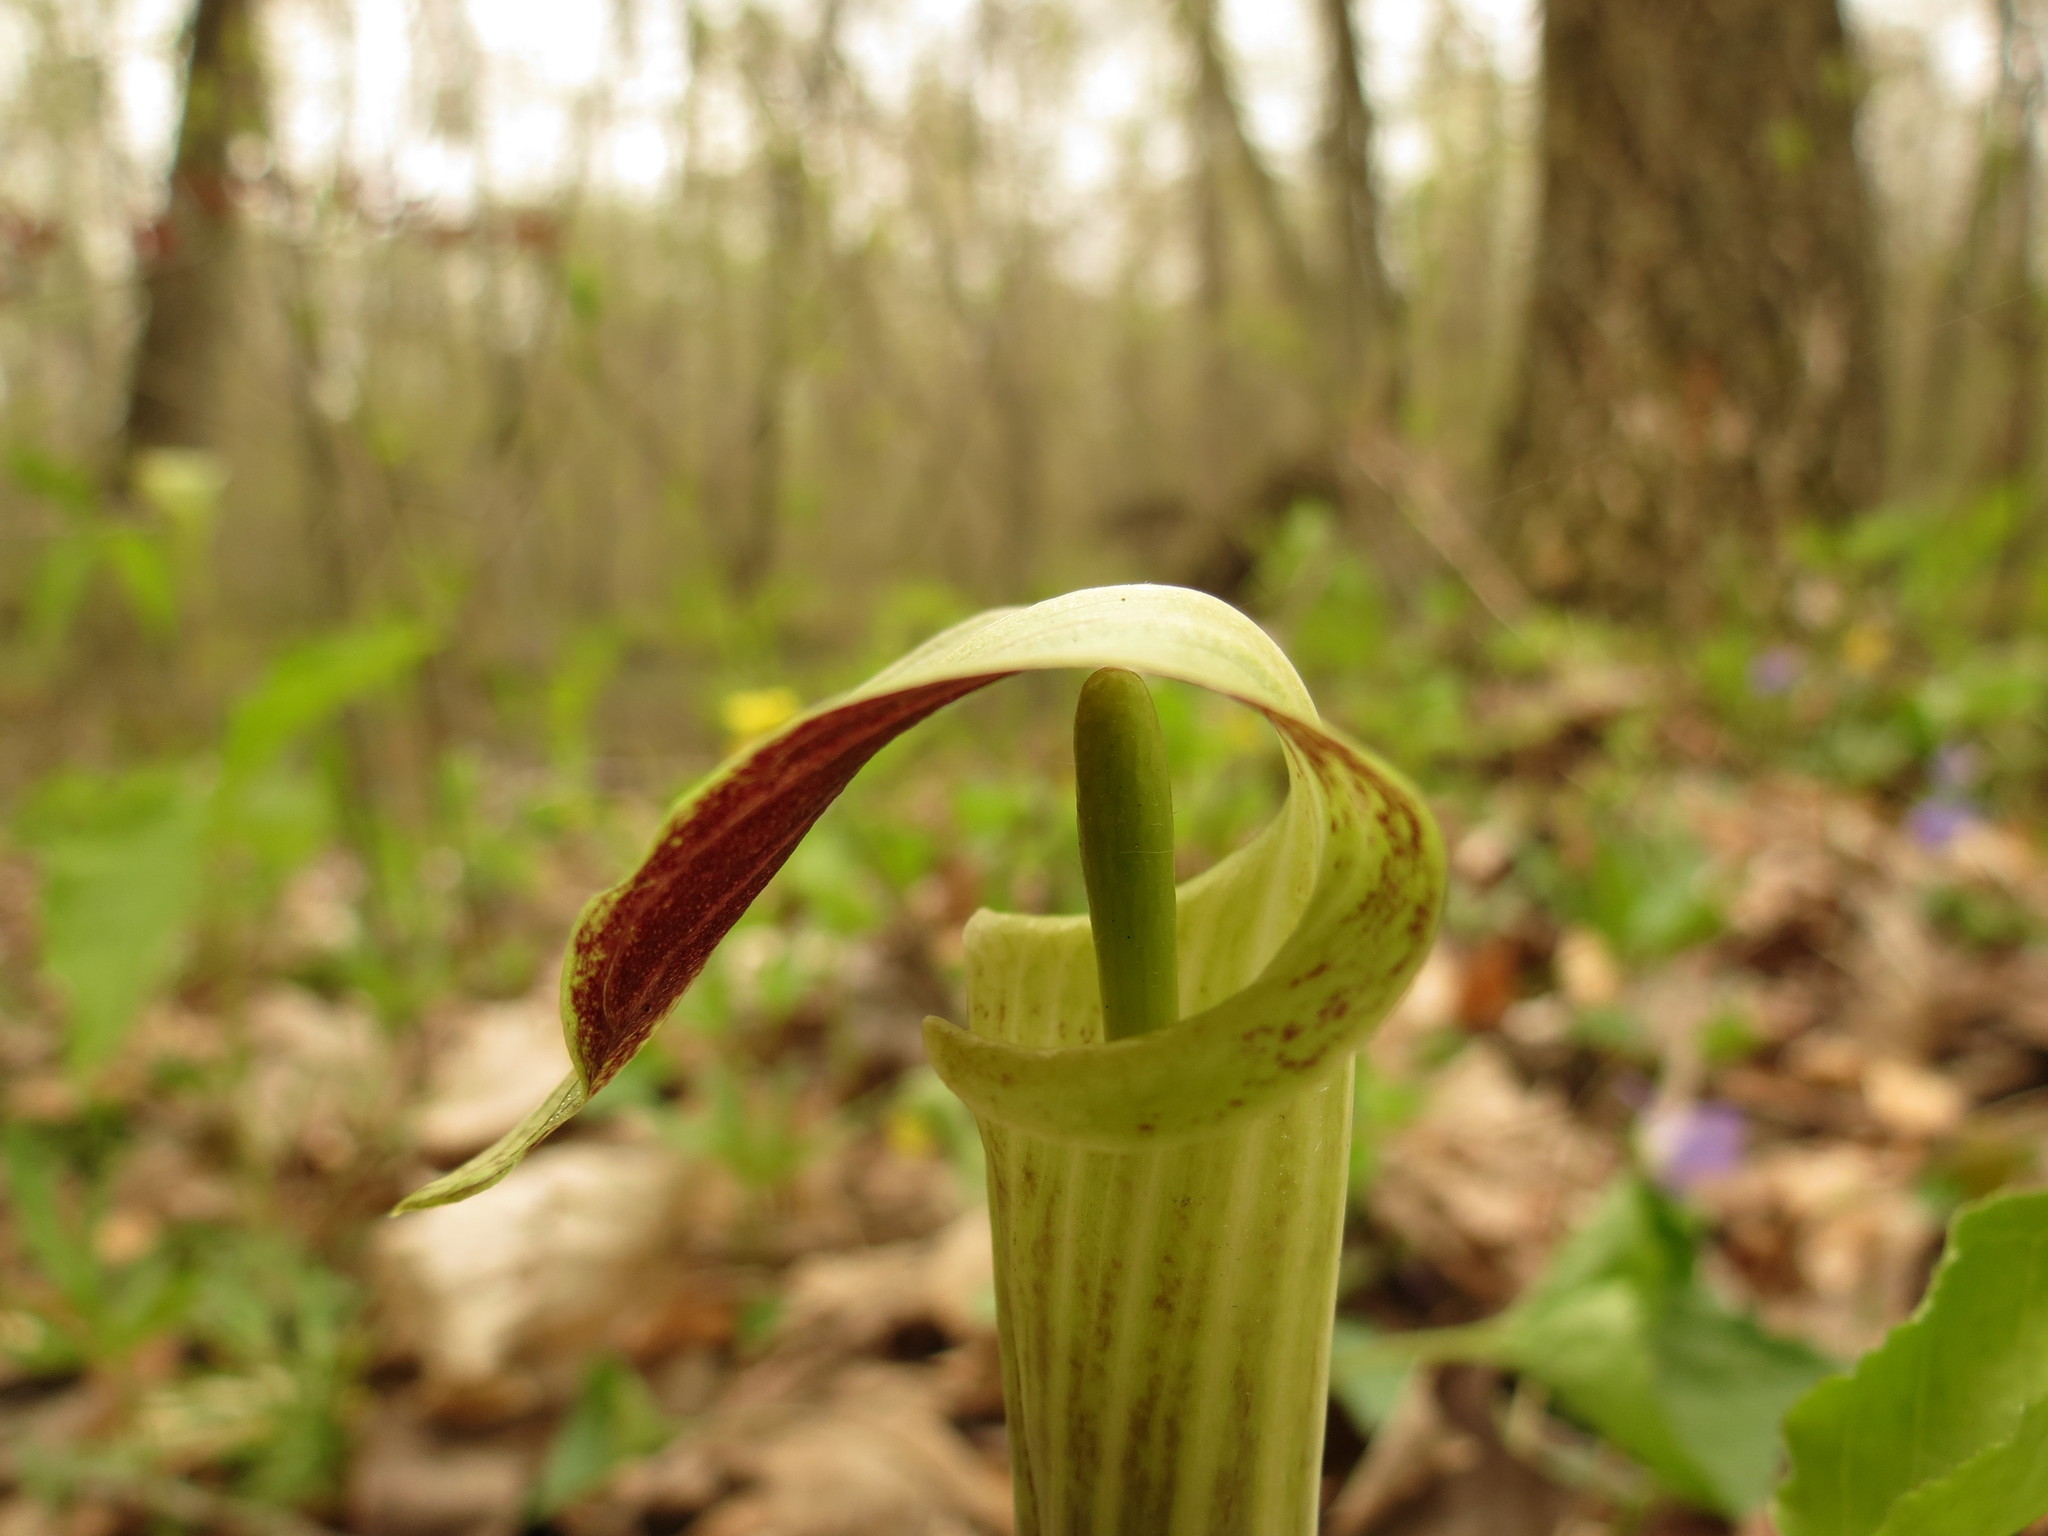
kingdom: Plantae
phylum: Tracheophyta
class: Liliopsida
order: Alismatales
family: Araceae
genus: Arisaema
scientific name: Arisaema triphyllum
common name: Jack-in-the-pulpit
